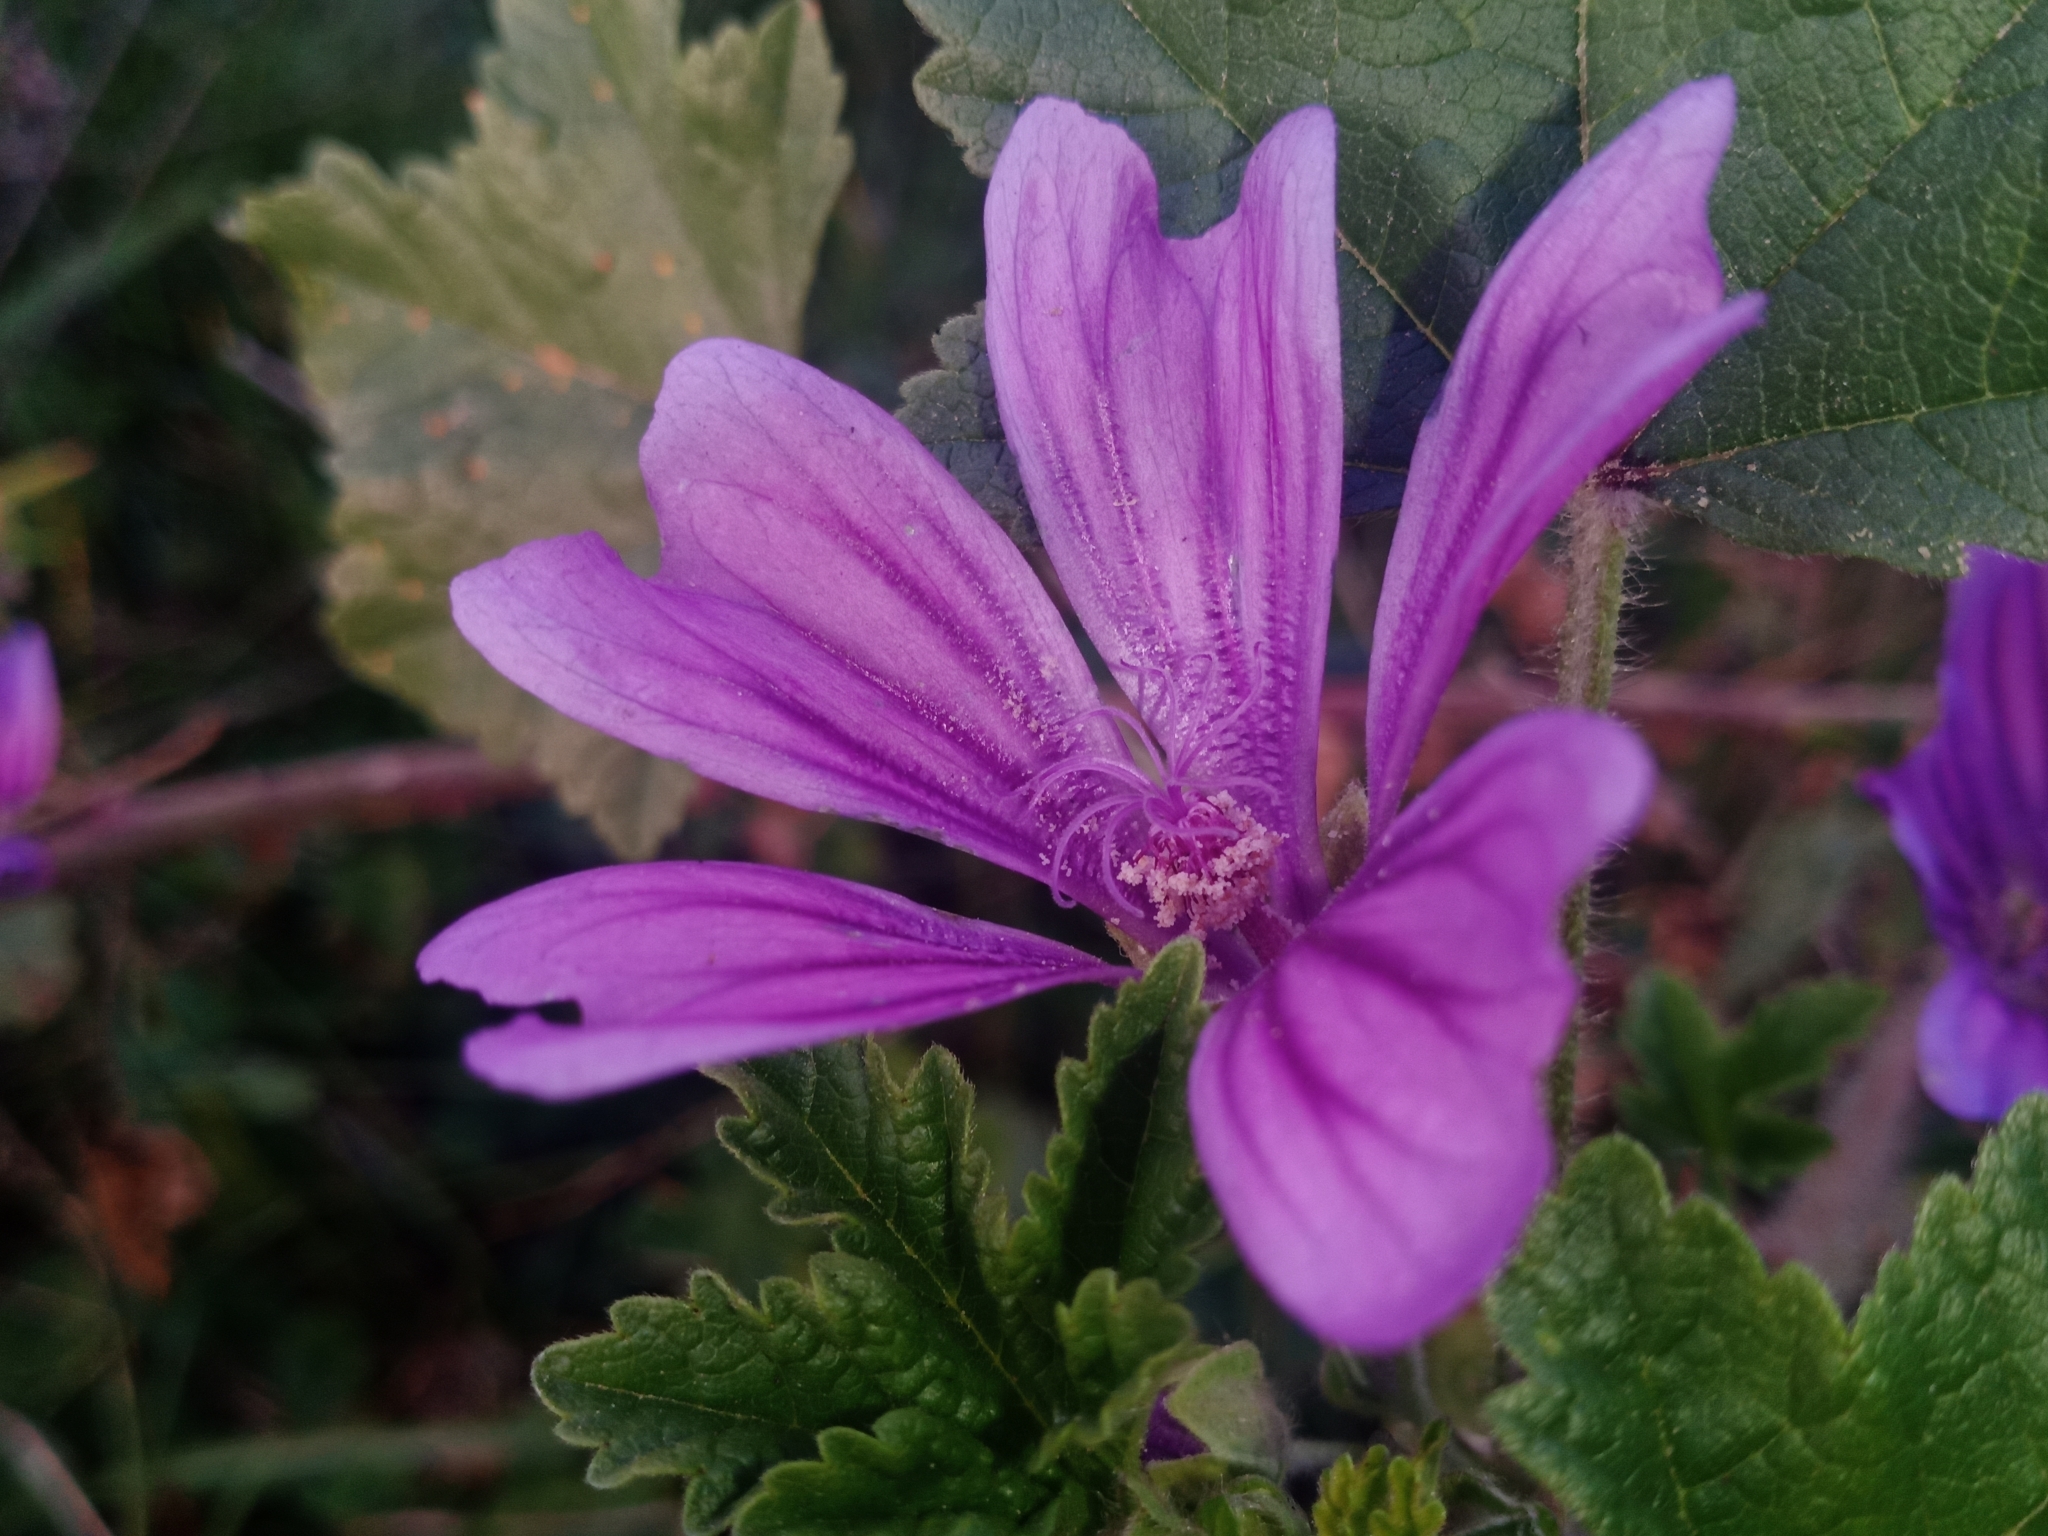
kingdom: Plantae
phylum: Tracheophyta
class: Magnoliopsida
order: Malvales
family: Malvaceae
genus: Malva
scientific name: Malva sylvestris
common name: Common mallow
